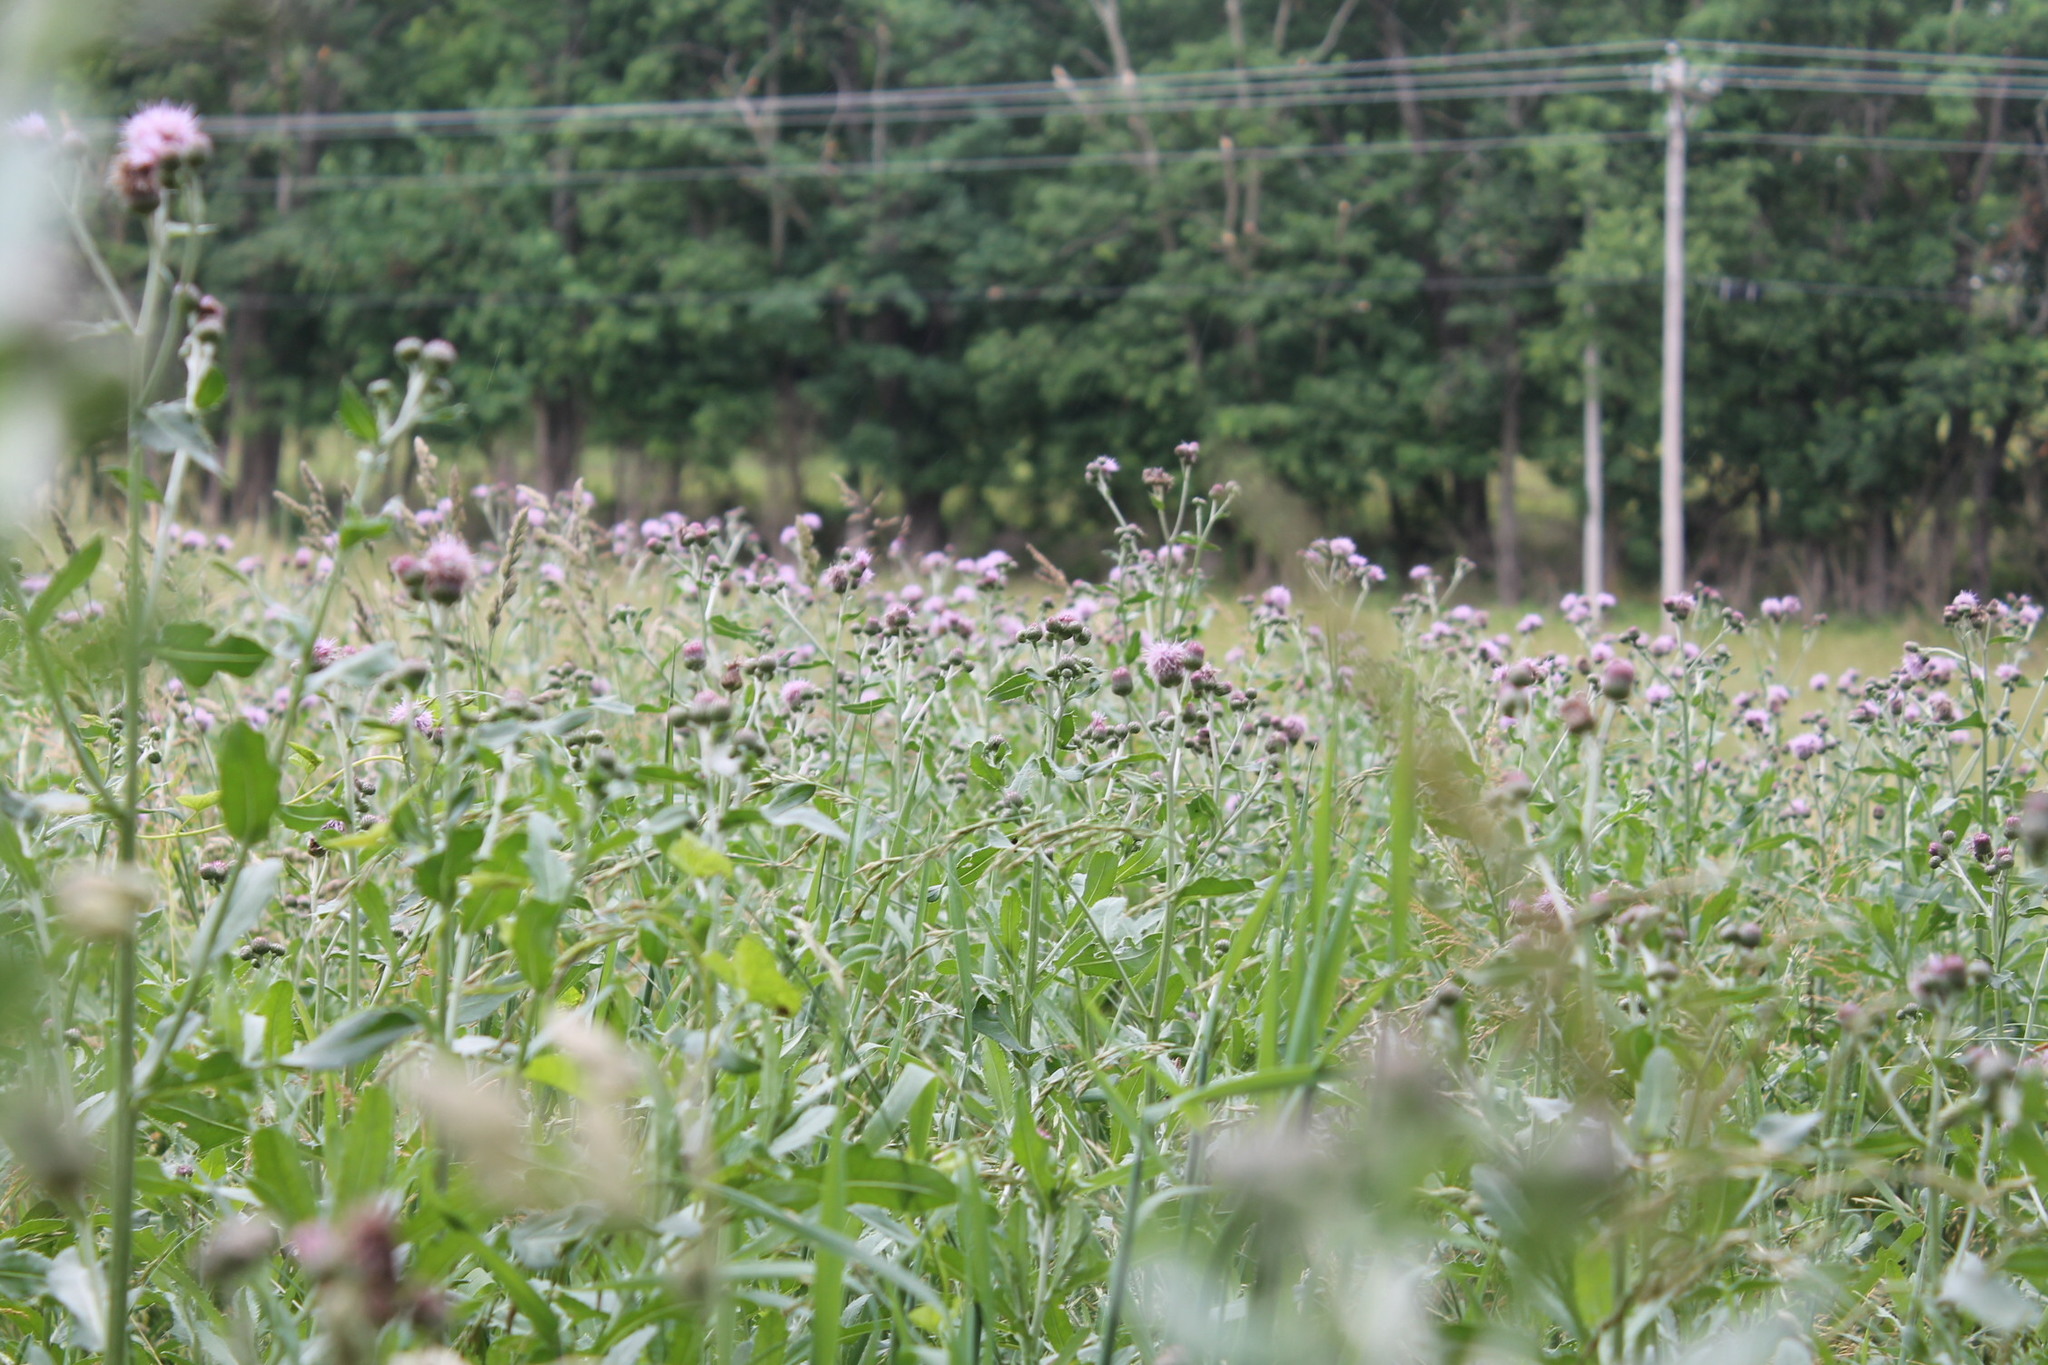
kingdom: Plantae
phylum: Tracheophyta
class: Magnoliopsida
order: Asterales
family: Asteraceae
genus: Cirsium
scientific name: Cirsium arvense
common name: Creeping thistle
